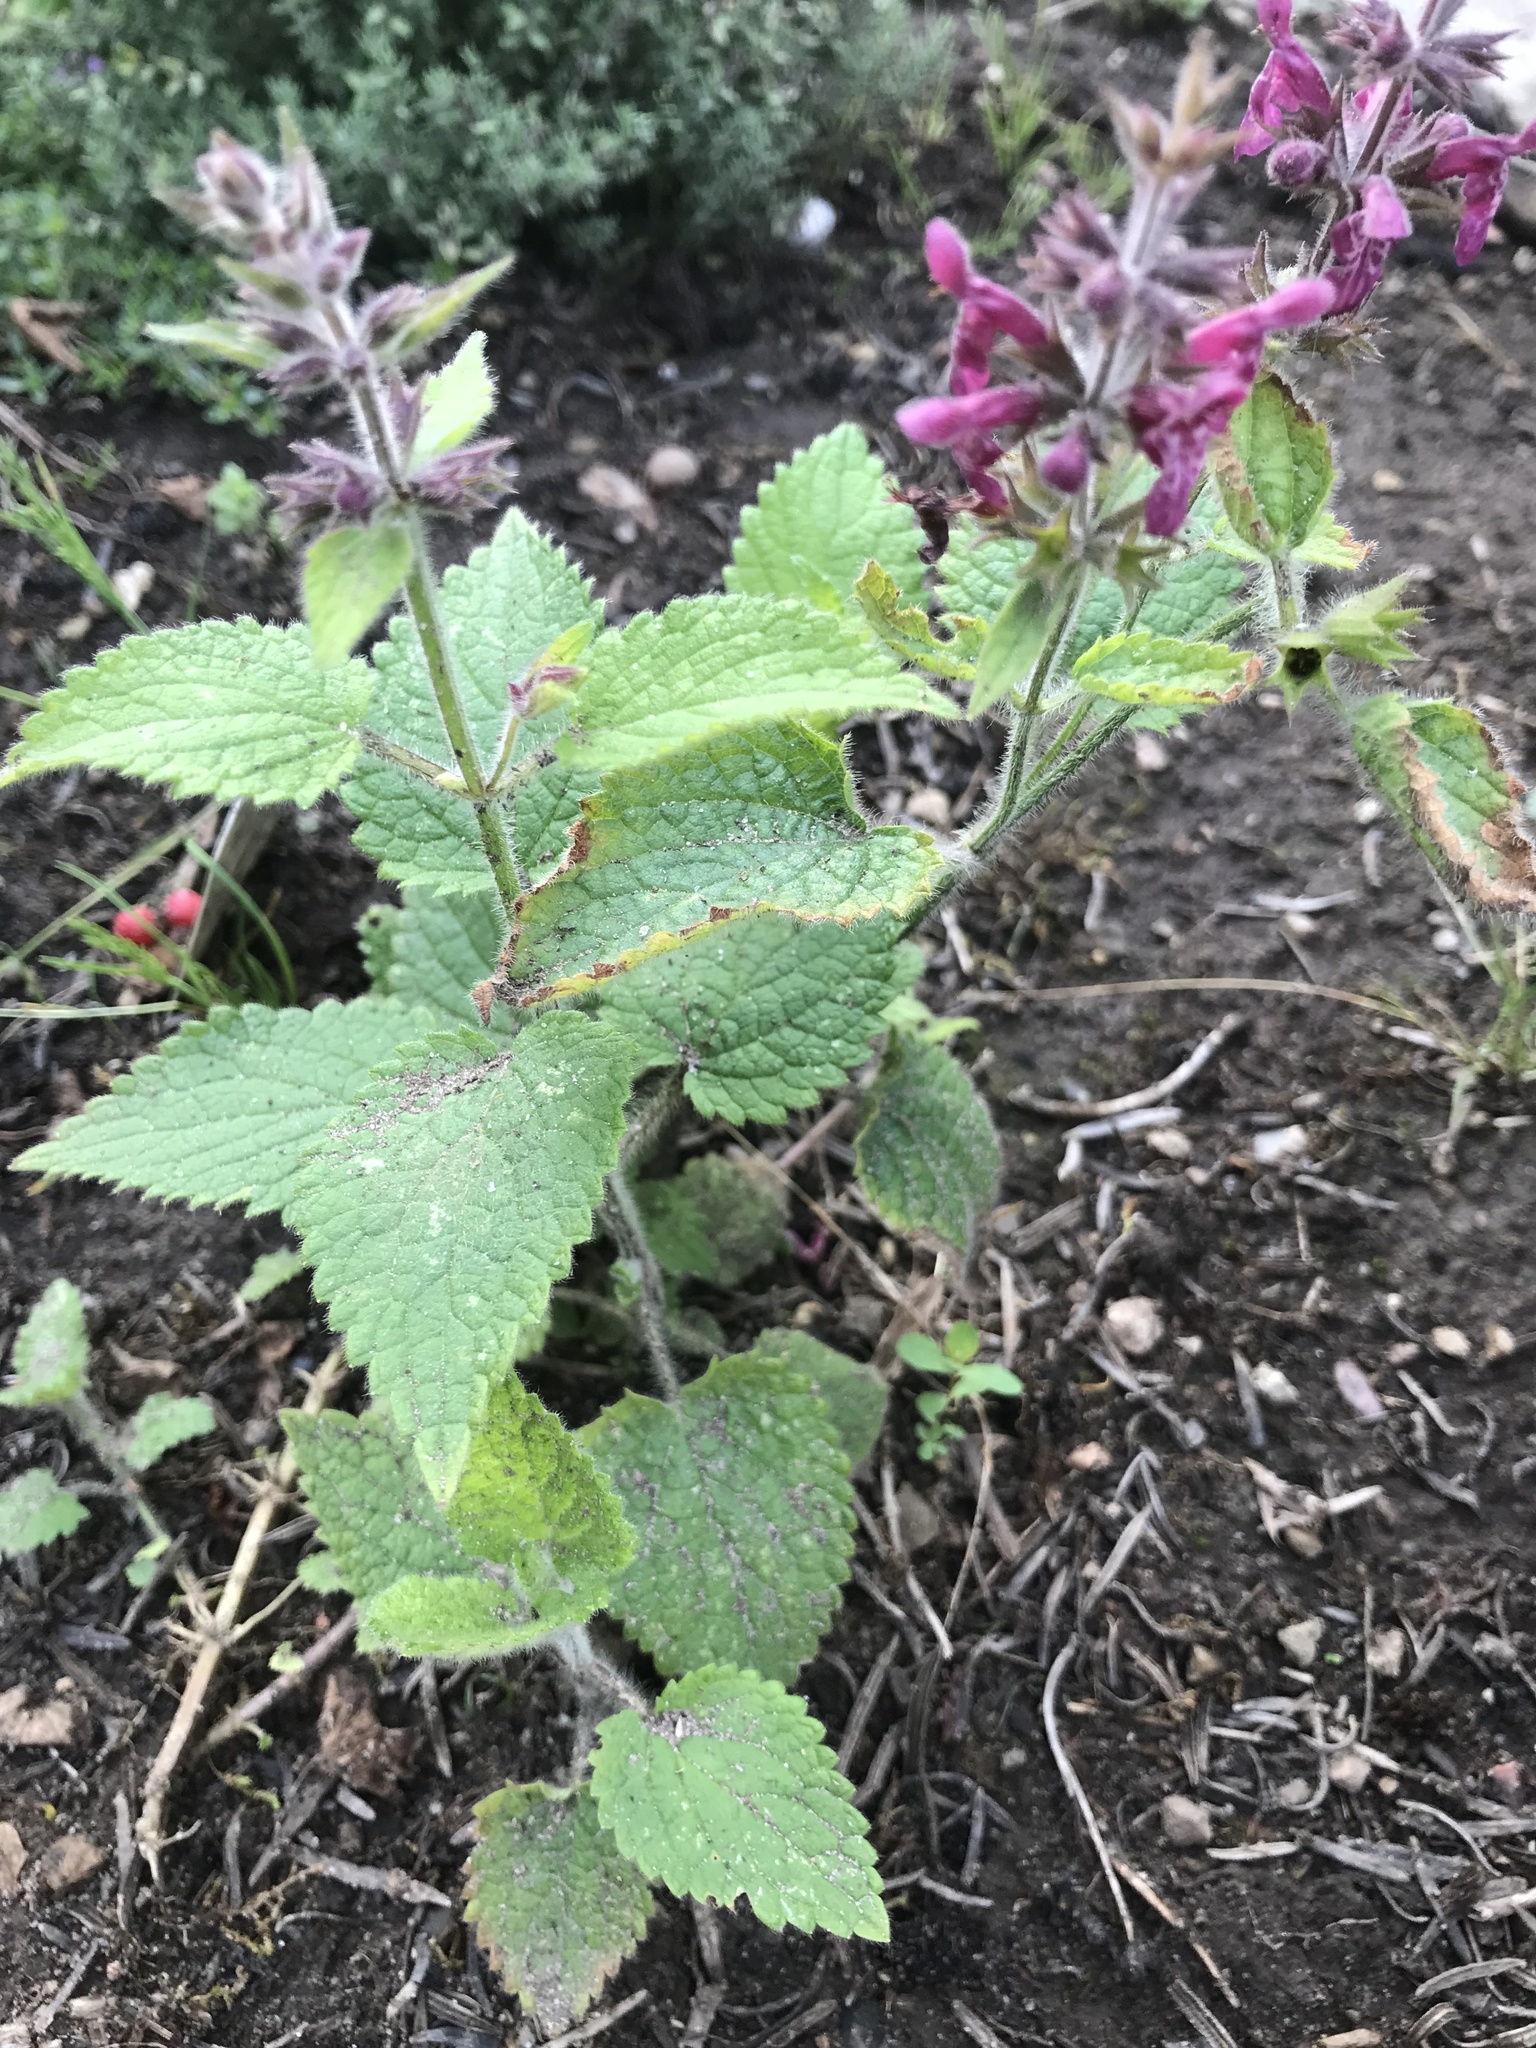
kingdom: Plantae
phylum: Tracheophyta
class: Magnoliopsida
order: Lamiales
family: Lamiaceae
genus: Stachys
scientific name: Stachys sylvatica
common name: Hedge woundwort
